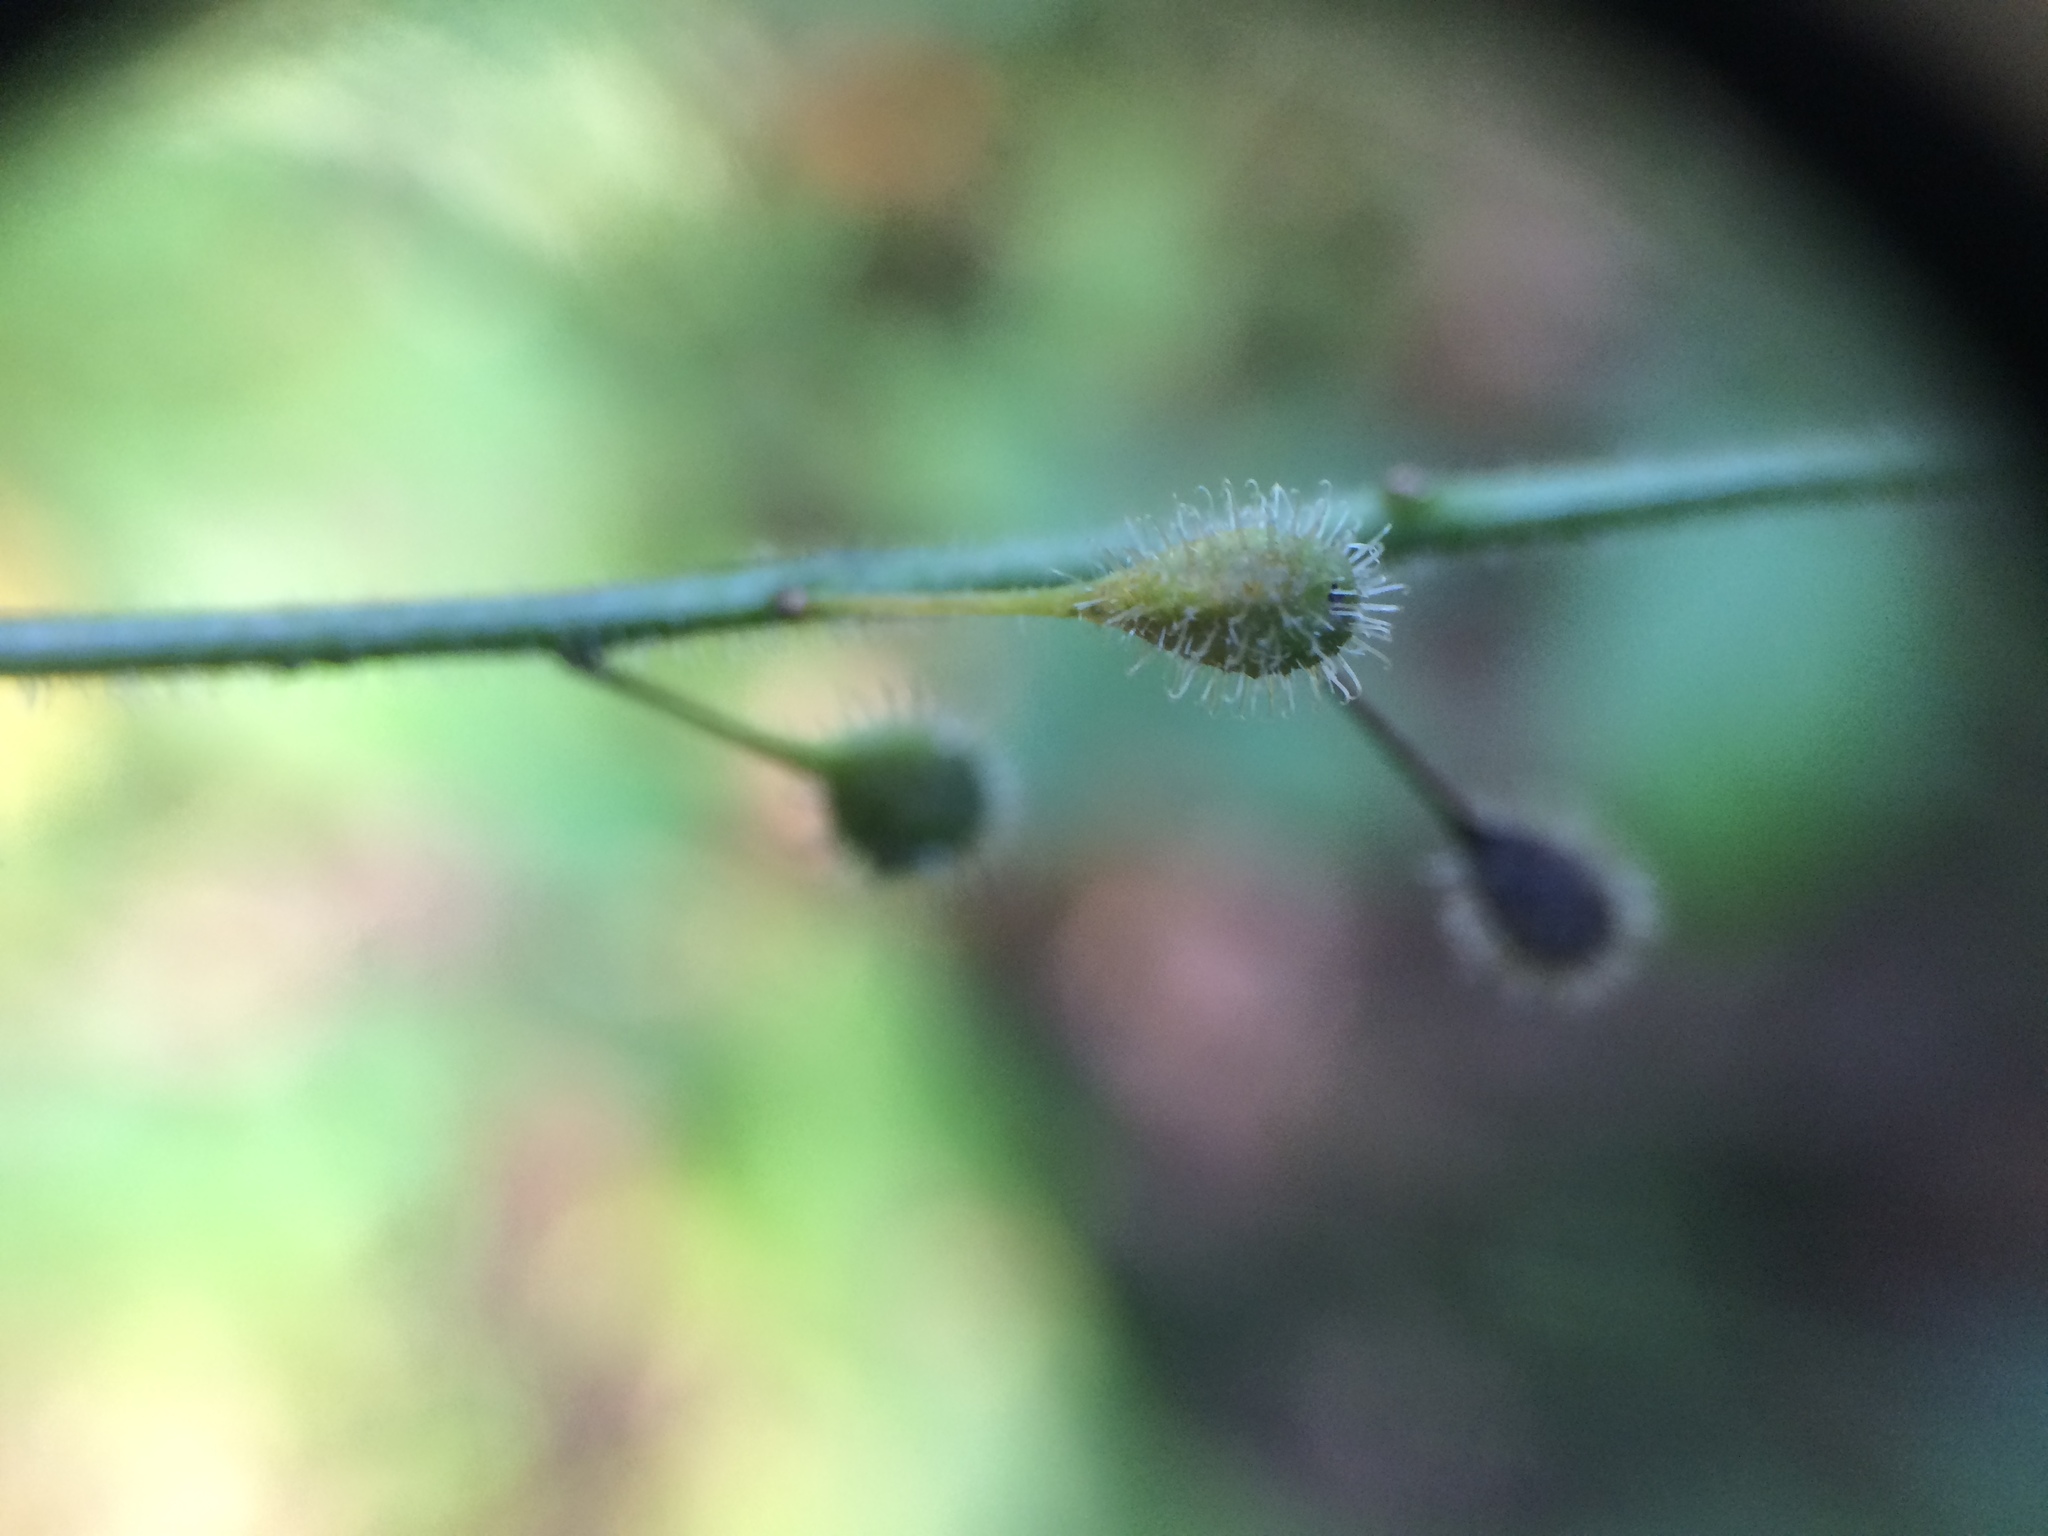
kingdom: Plantae
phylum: Tracheophyta
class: Magnoliopsida
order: Myrtales
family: Onagraceae
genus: Circaea
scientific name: Circaea lutetiana
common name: Enchanter's-nightshade
